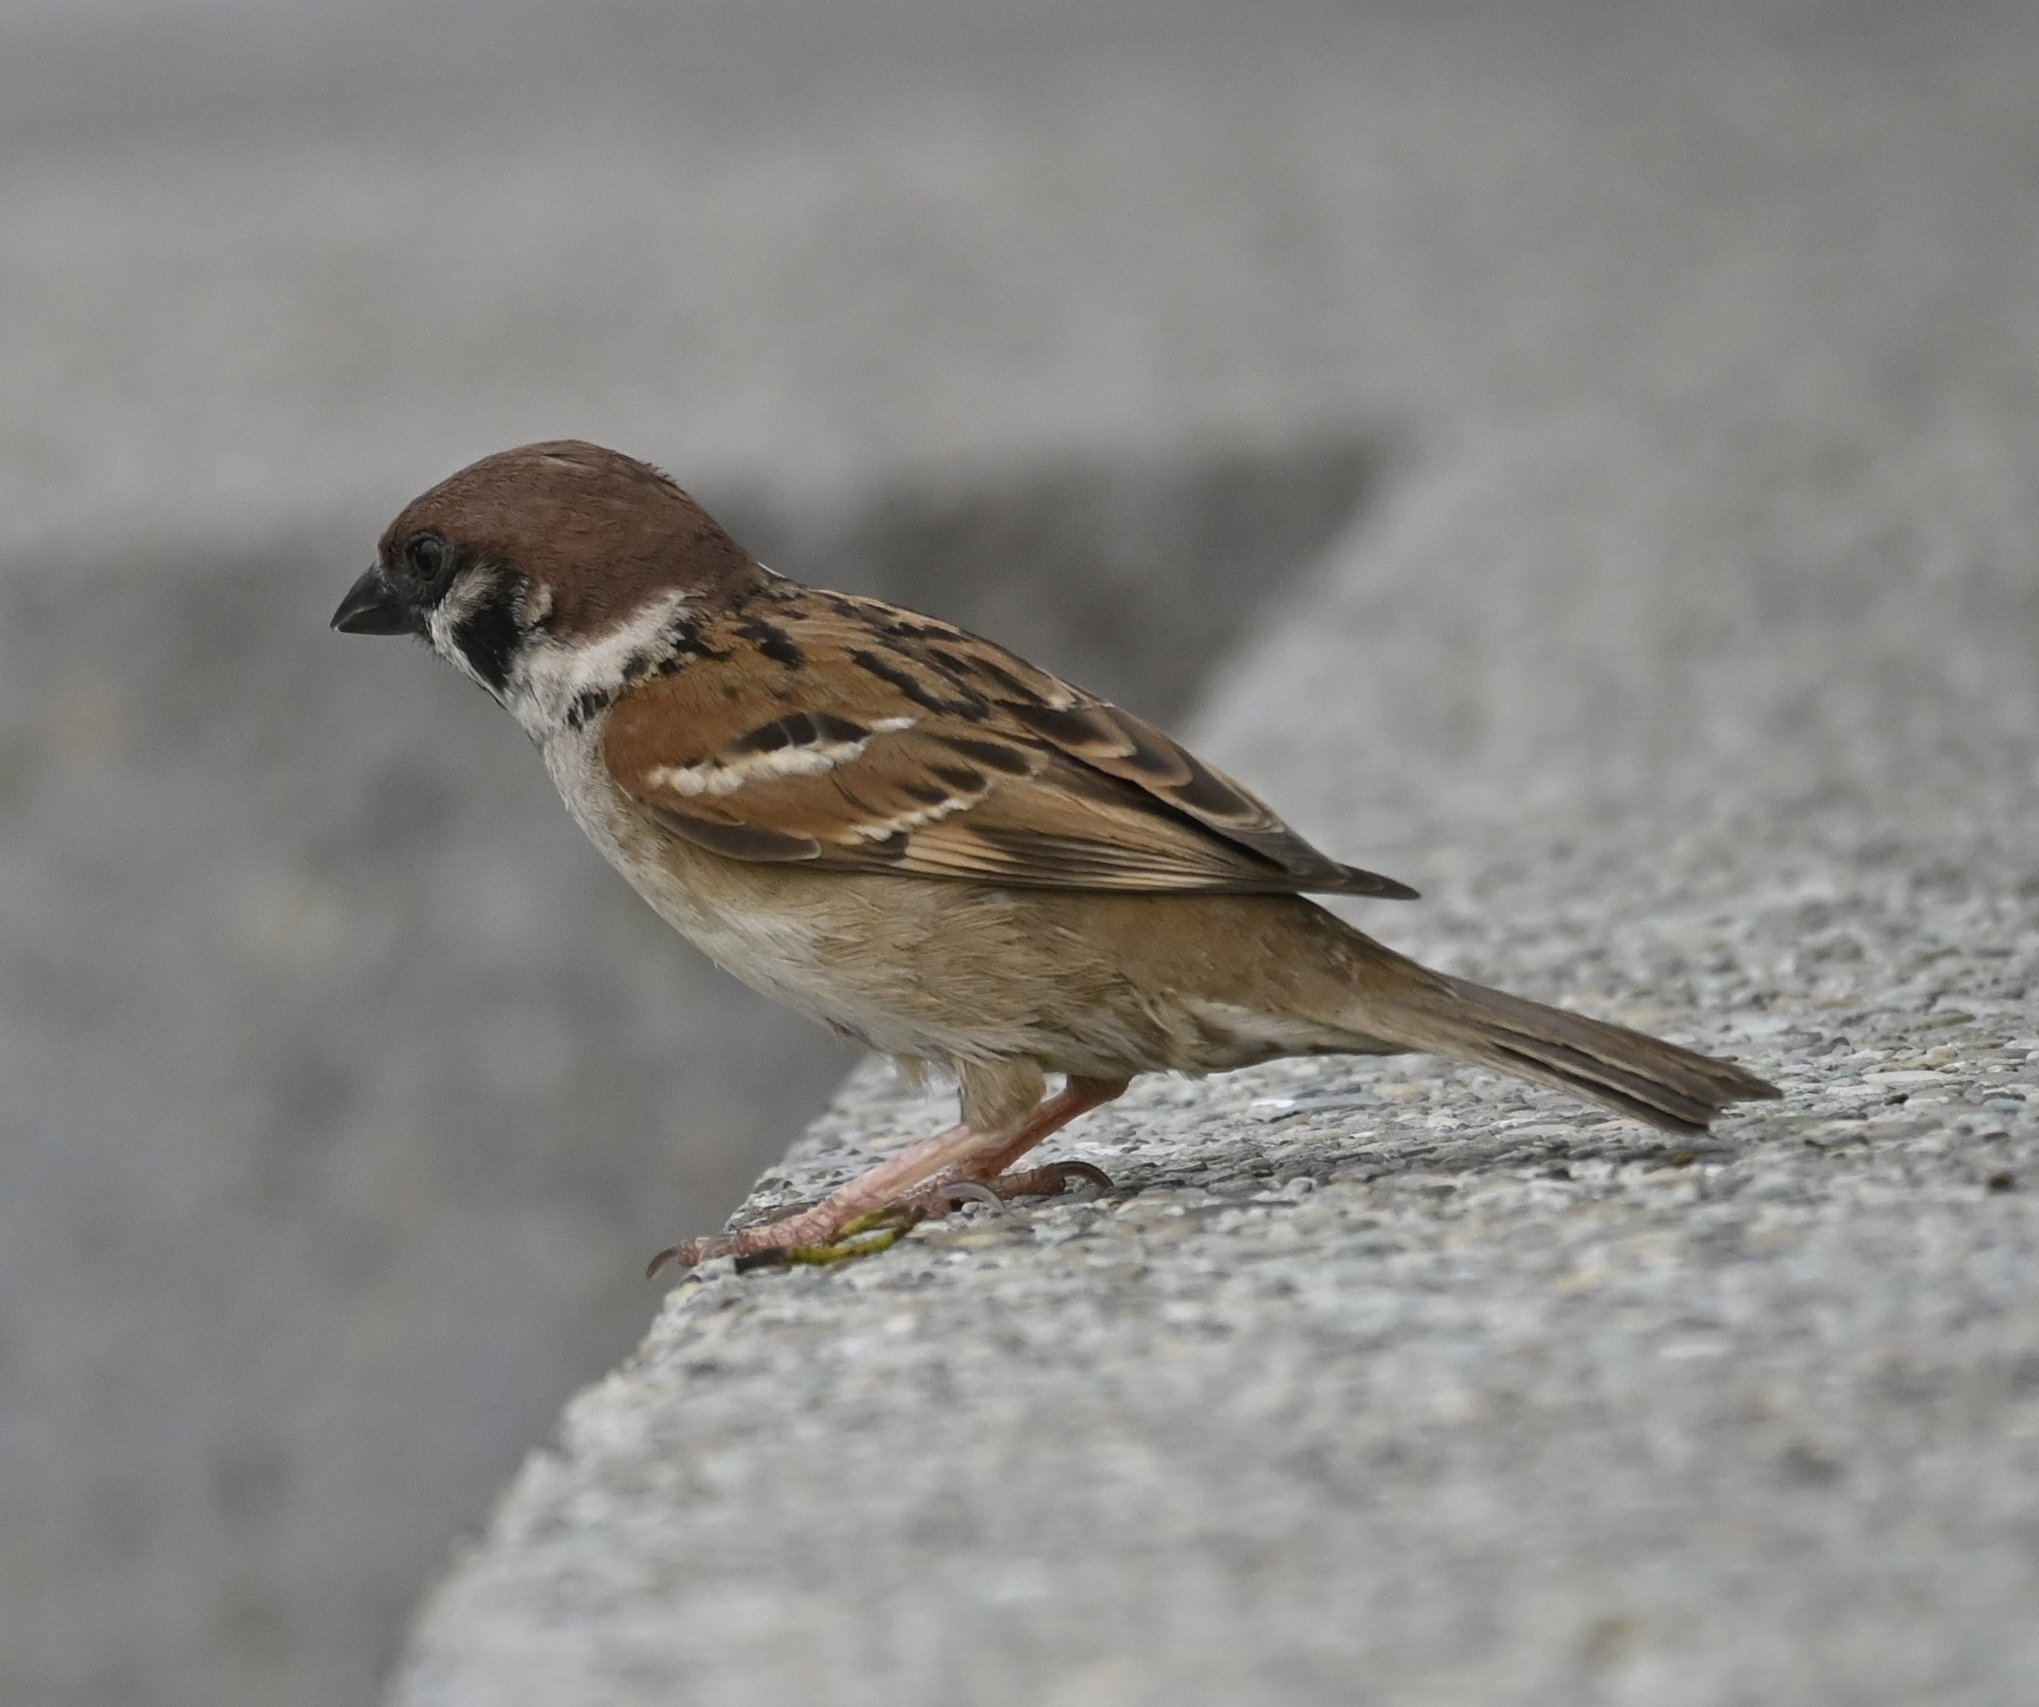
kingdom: Animalia
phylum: Chordata
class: Aves
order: Passeriformes
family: Passeridae
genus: Passer
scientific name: Passer montanus
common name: Eurasian tree sparrow
